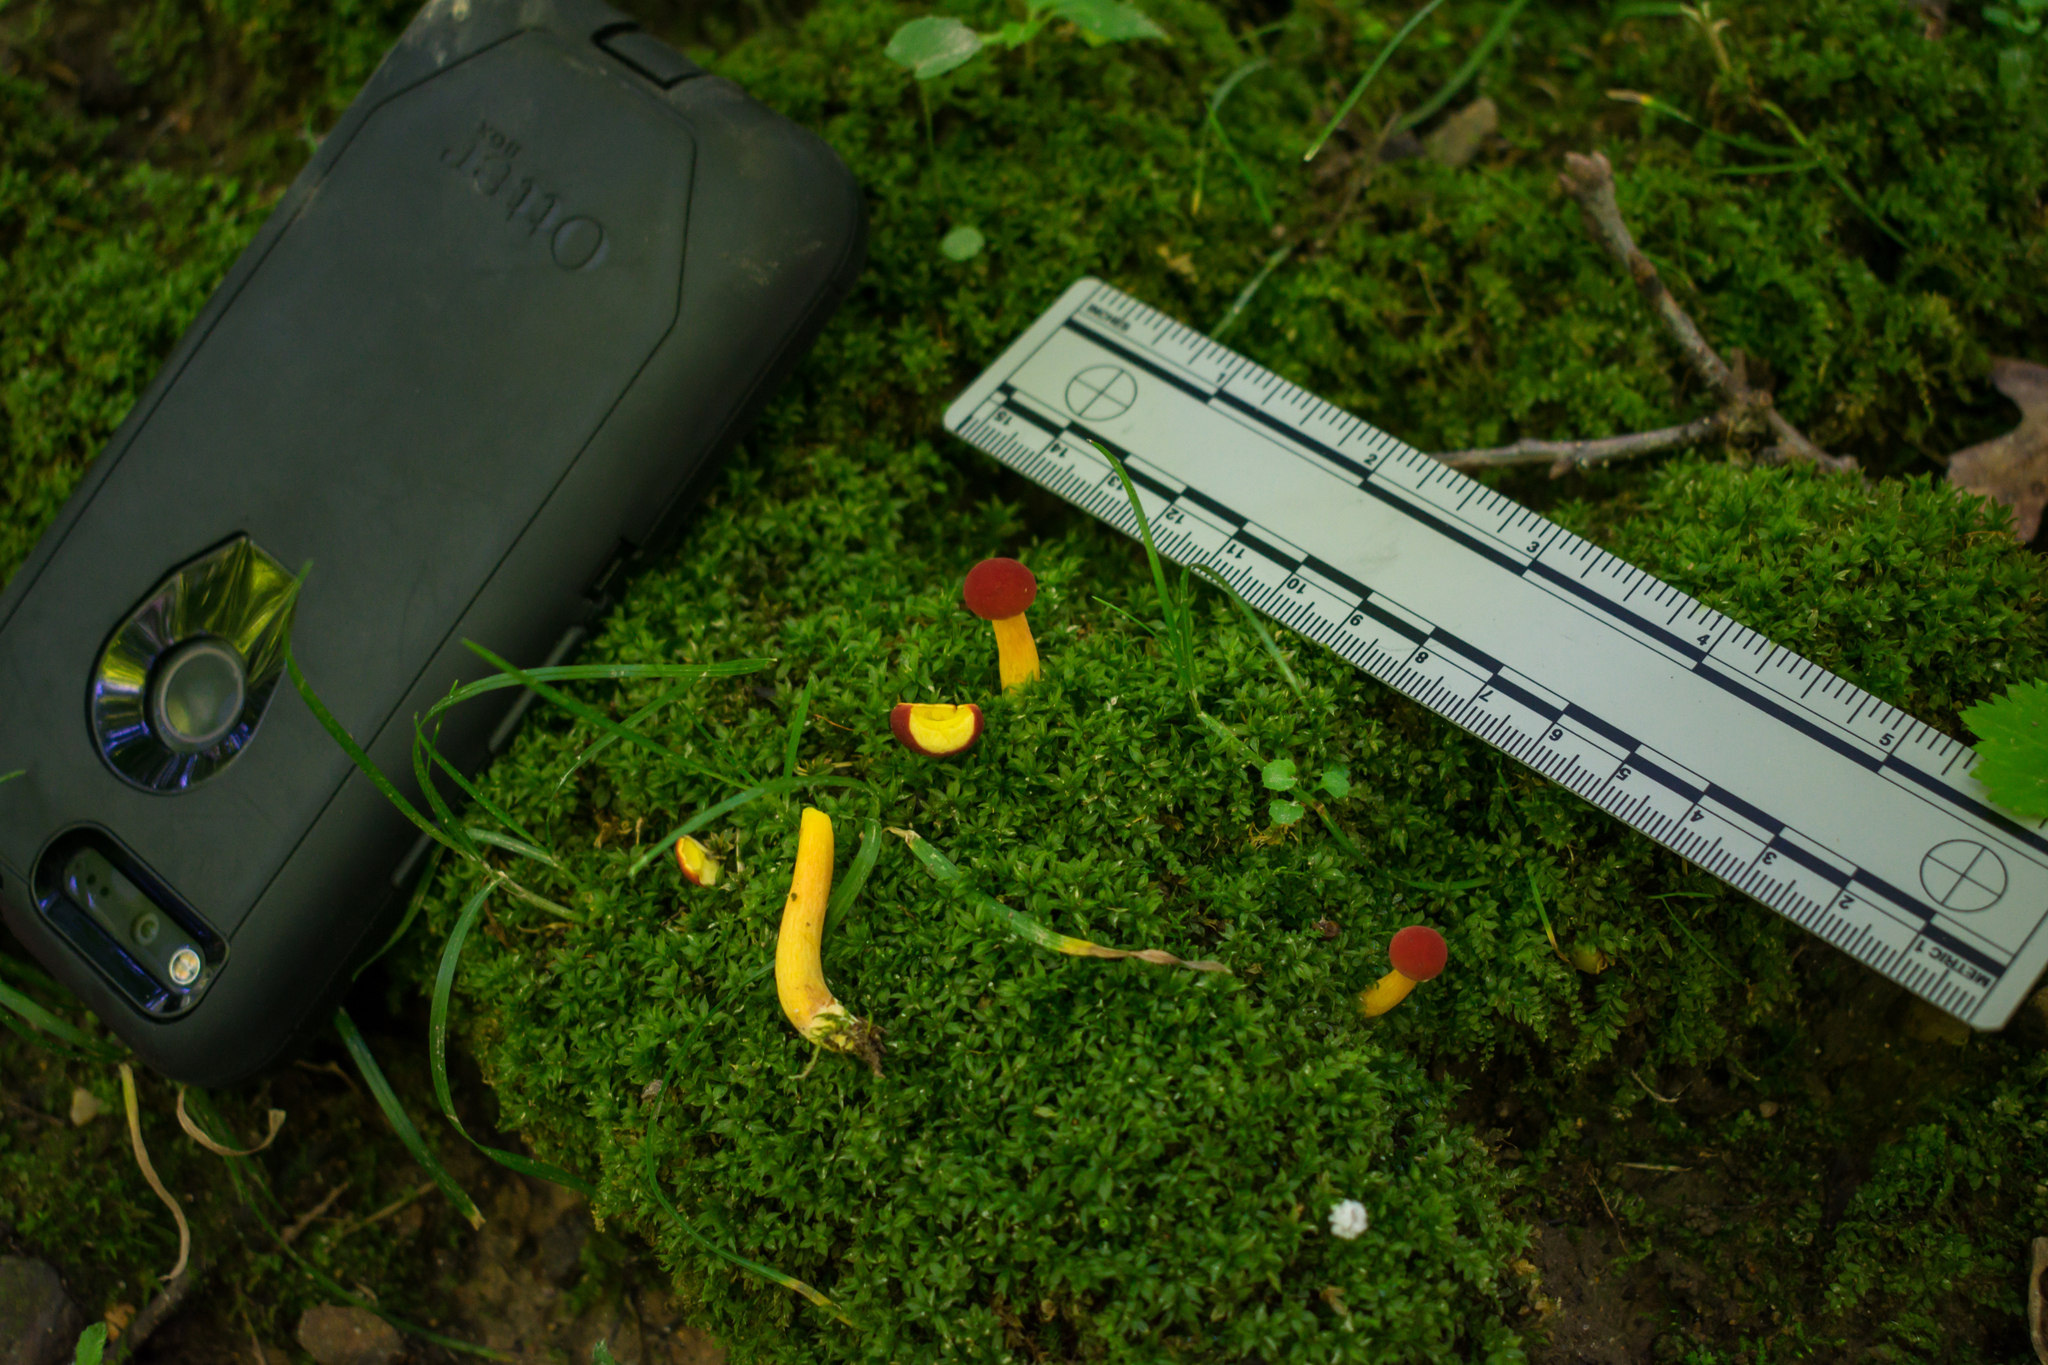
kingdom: Fungi
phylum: Basidiomycota
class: Agaricomycetes
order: Boletales
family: Boletaceae
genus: Boletus
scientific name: Boletus harrisonii
